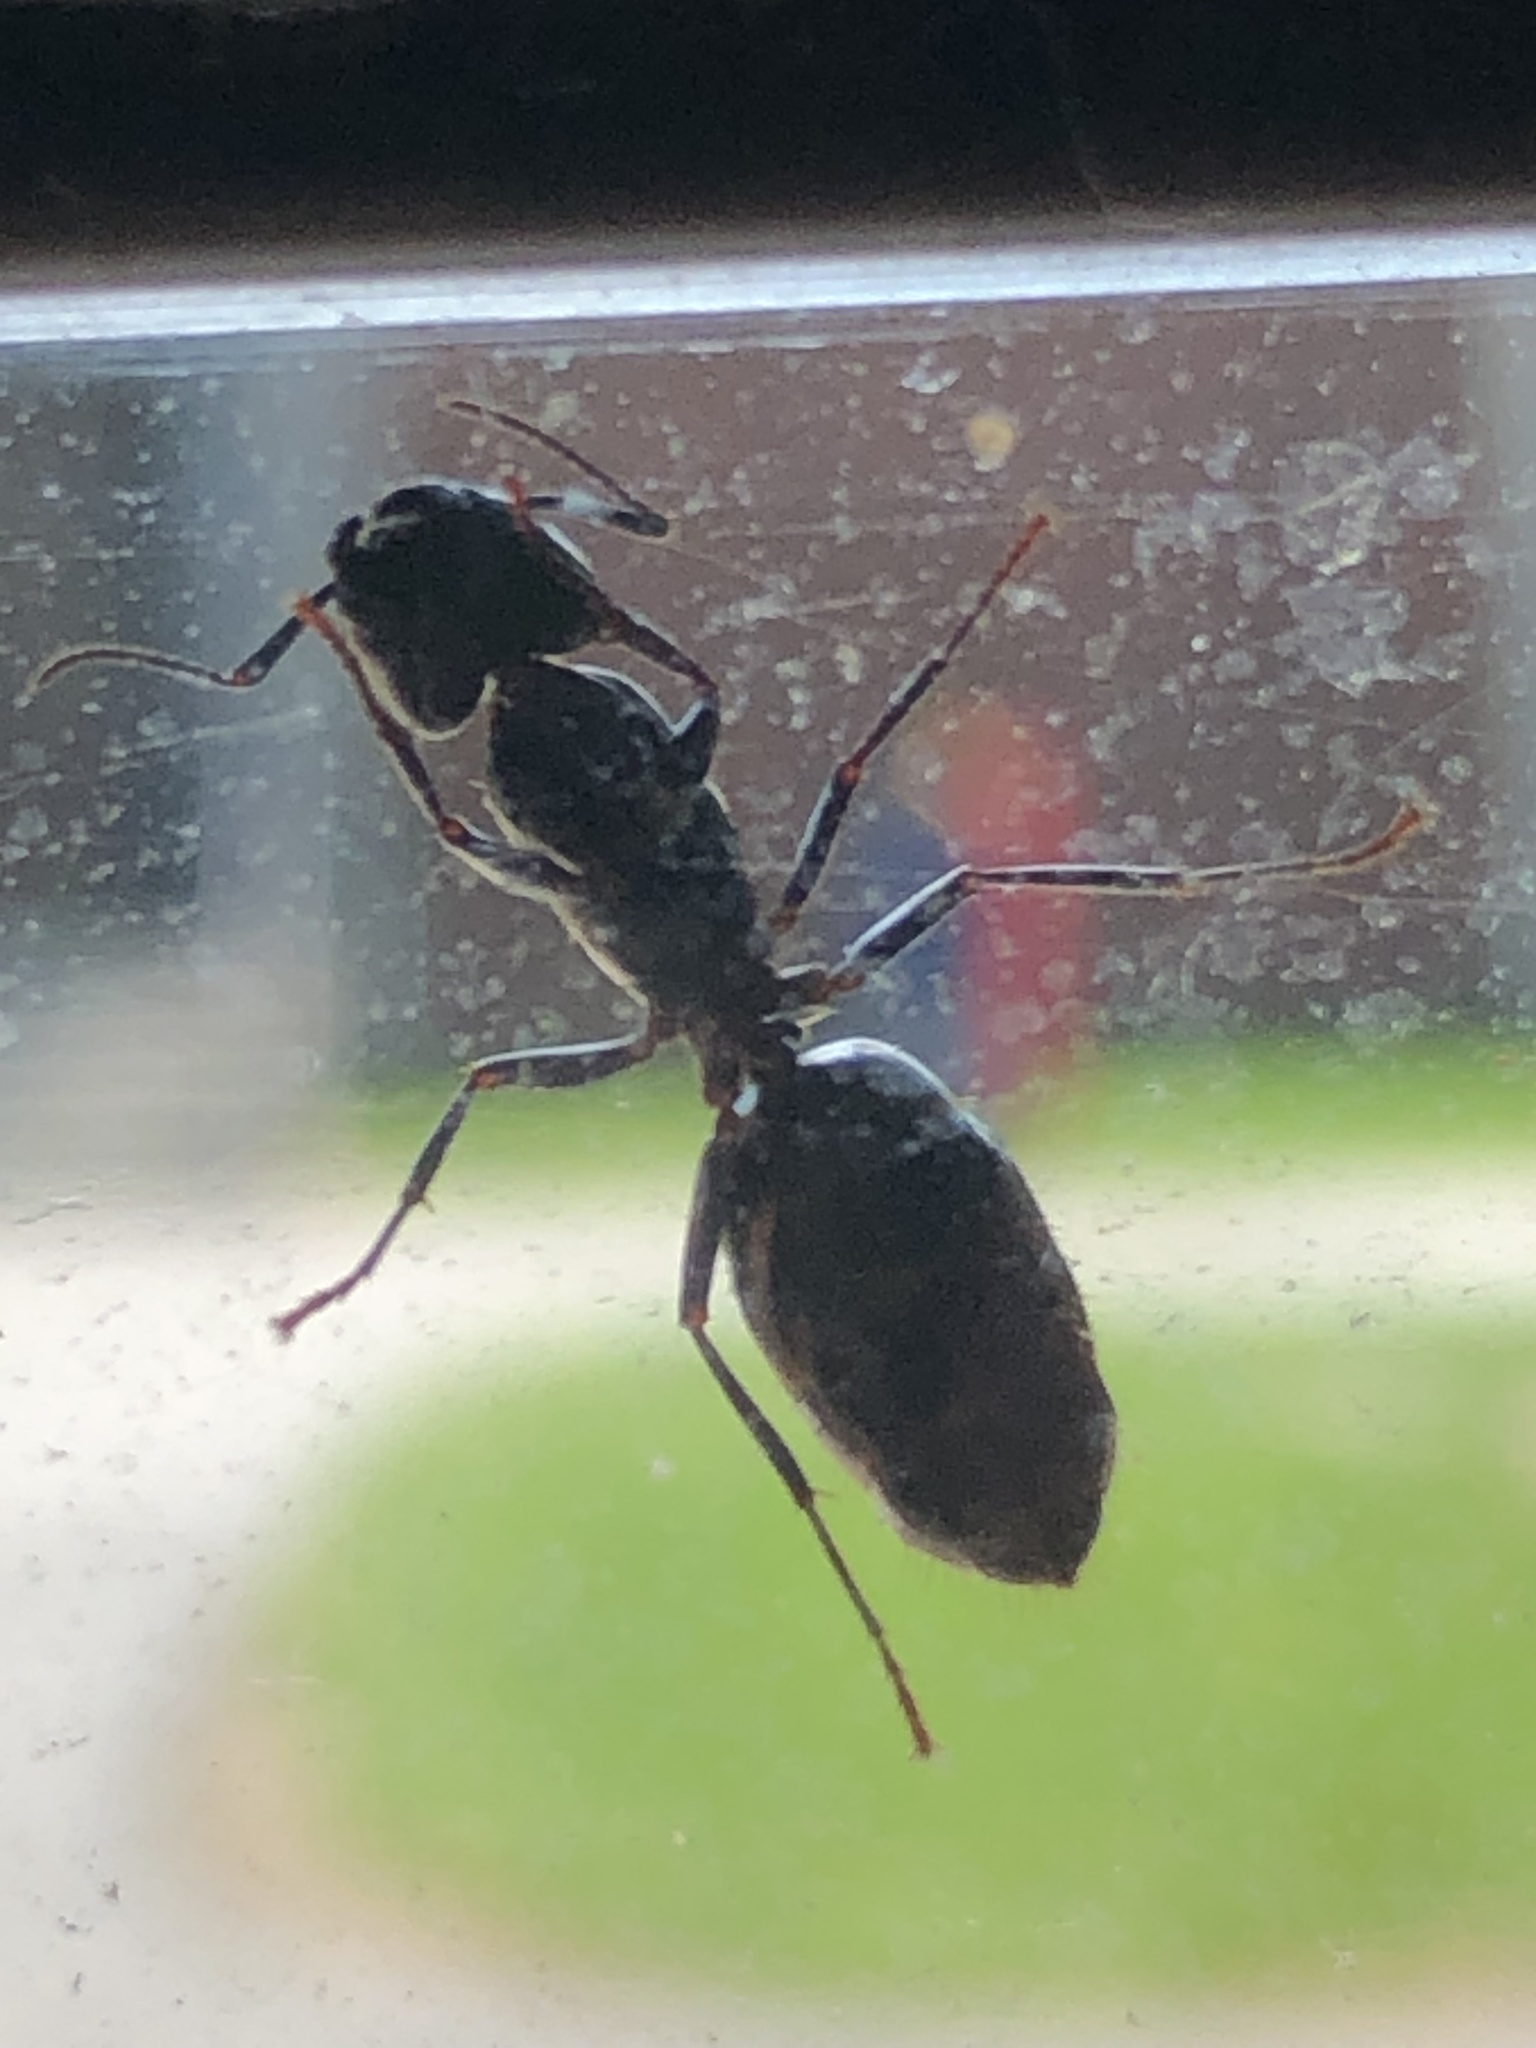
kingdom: Animalia
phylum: Arthropoda
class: Insecta
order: Hymenoptera
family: Formicidae
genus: Camponotus
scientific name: Camponotus pennsylvanicus
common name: Black carpenter ant
